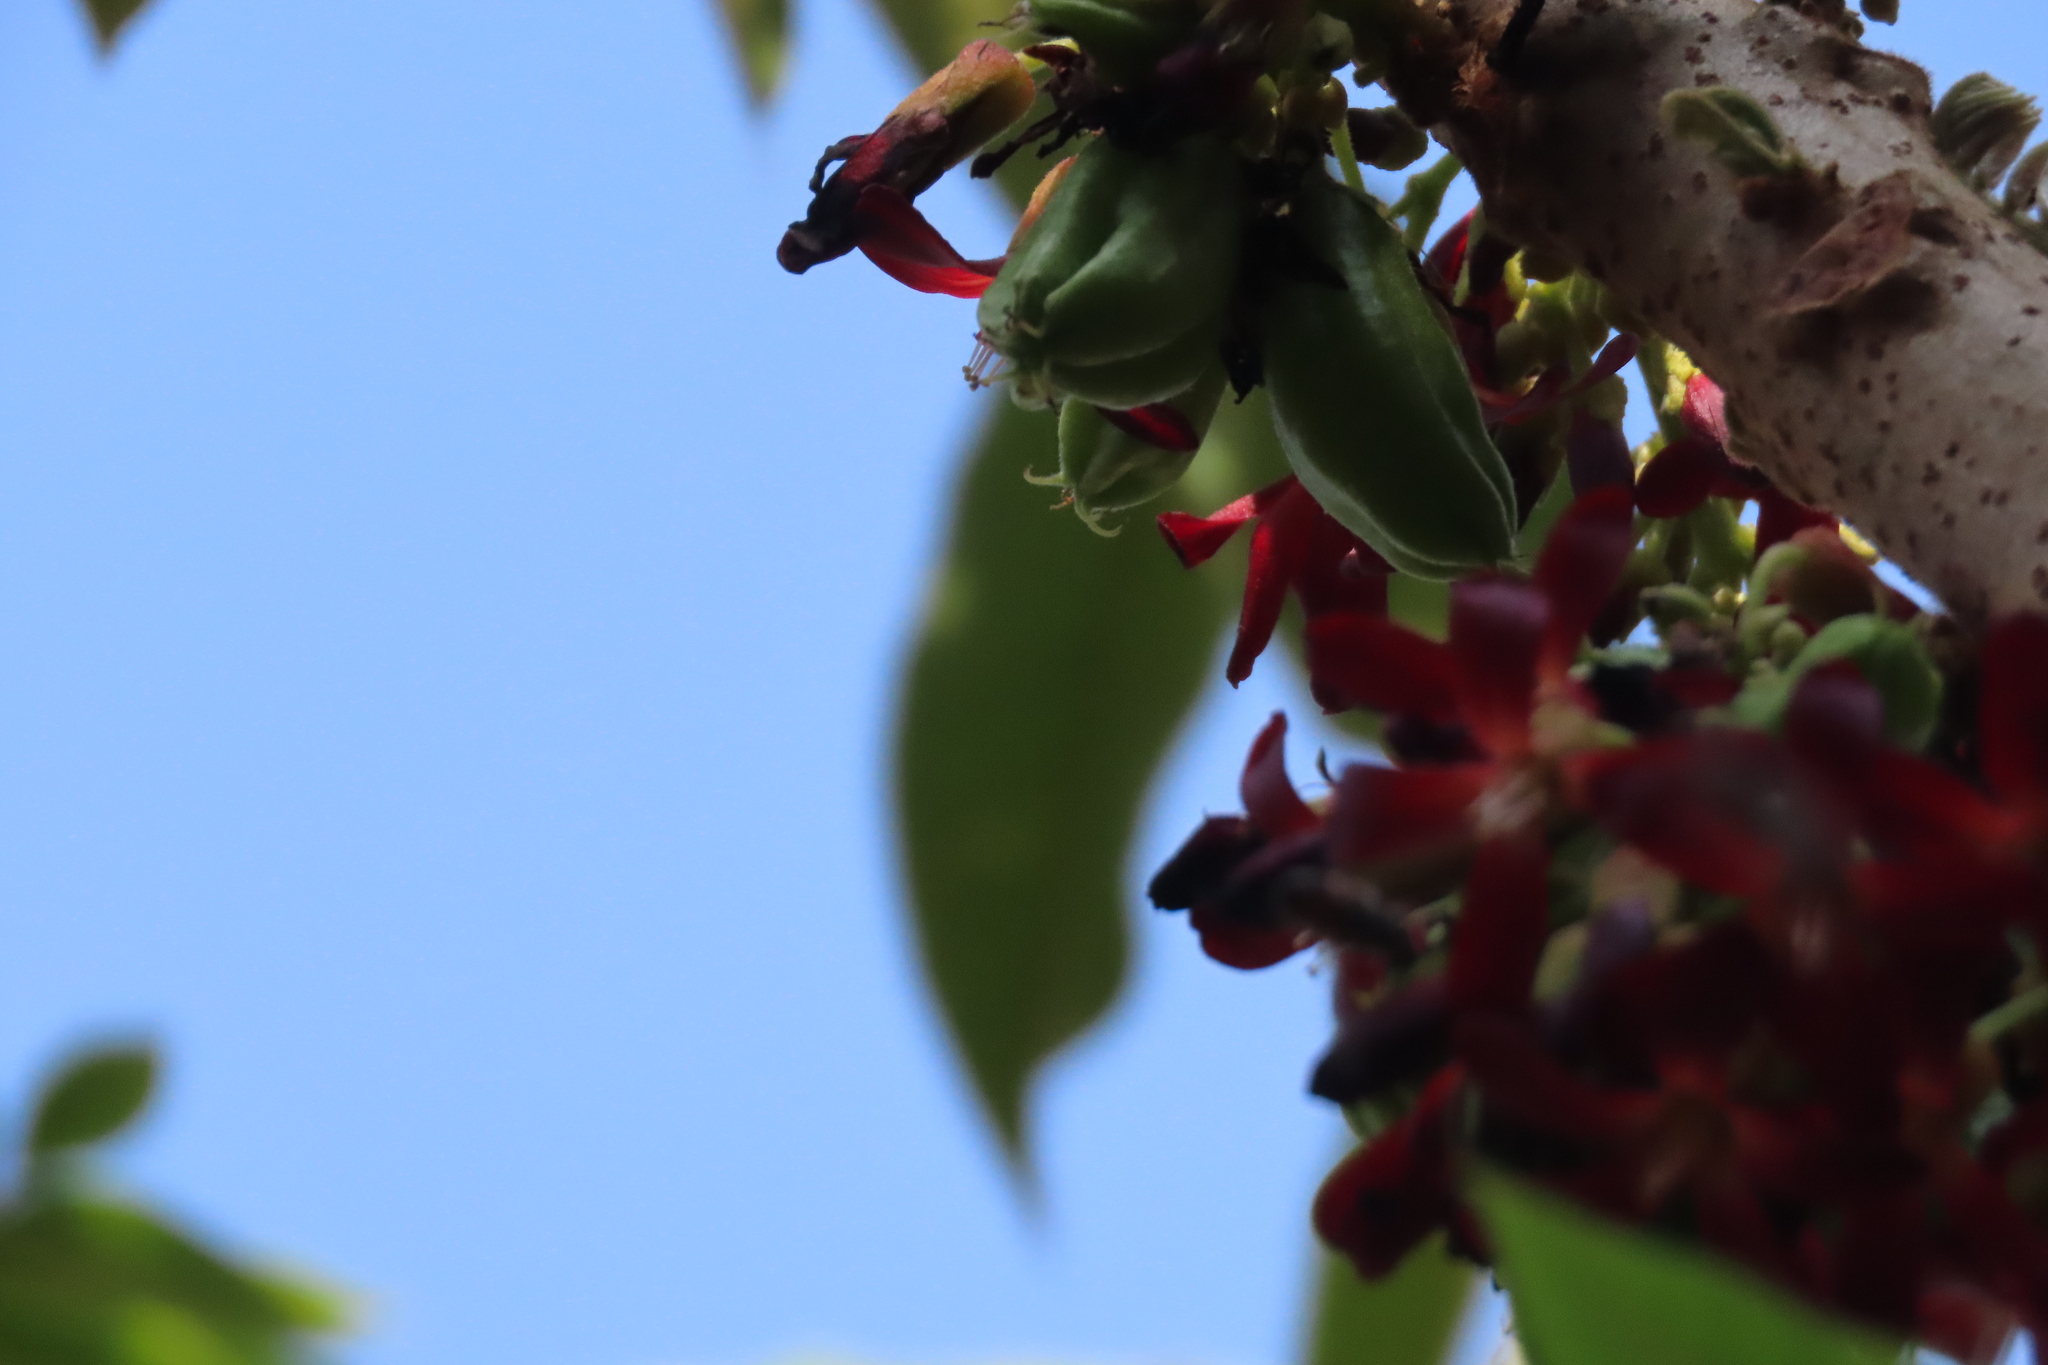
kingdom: Plantae
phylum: Tracheophyta
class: Magnoliopsida
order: Oxalidales
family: Oxalidaceae
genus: Averrhoa
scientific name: Averrhoa bilimbi
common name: Bilimbi
